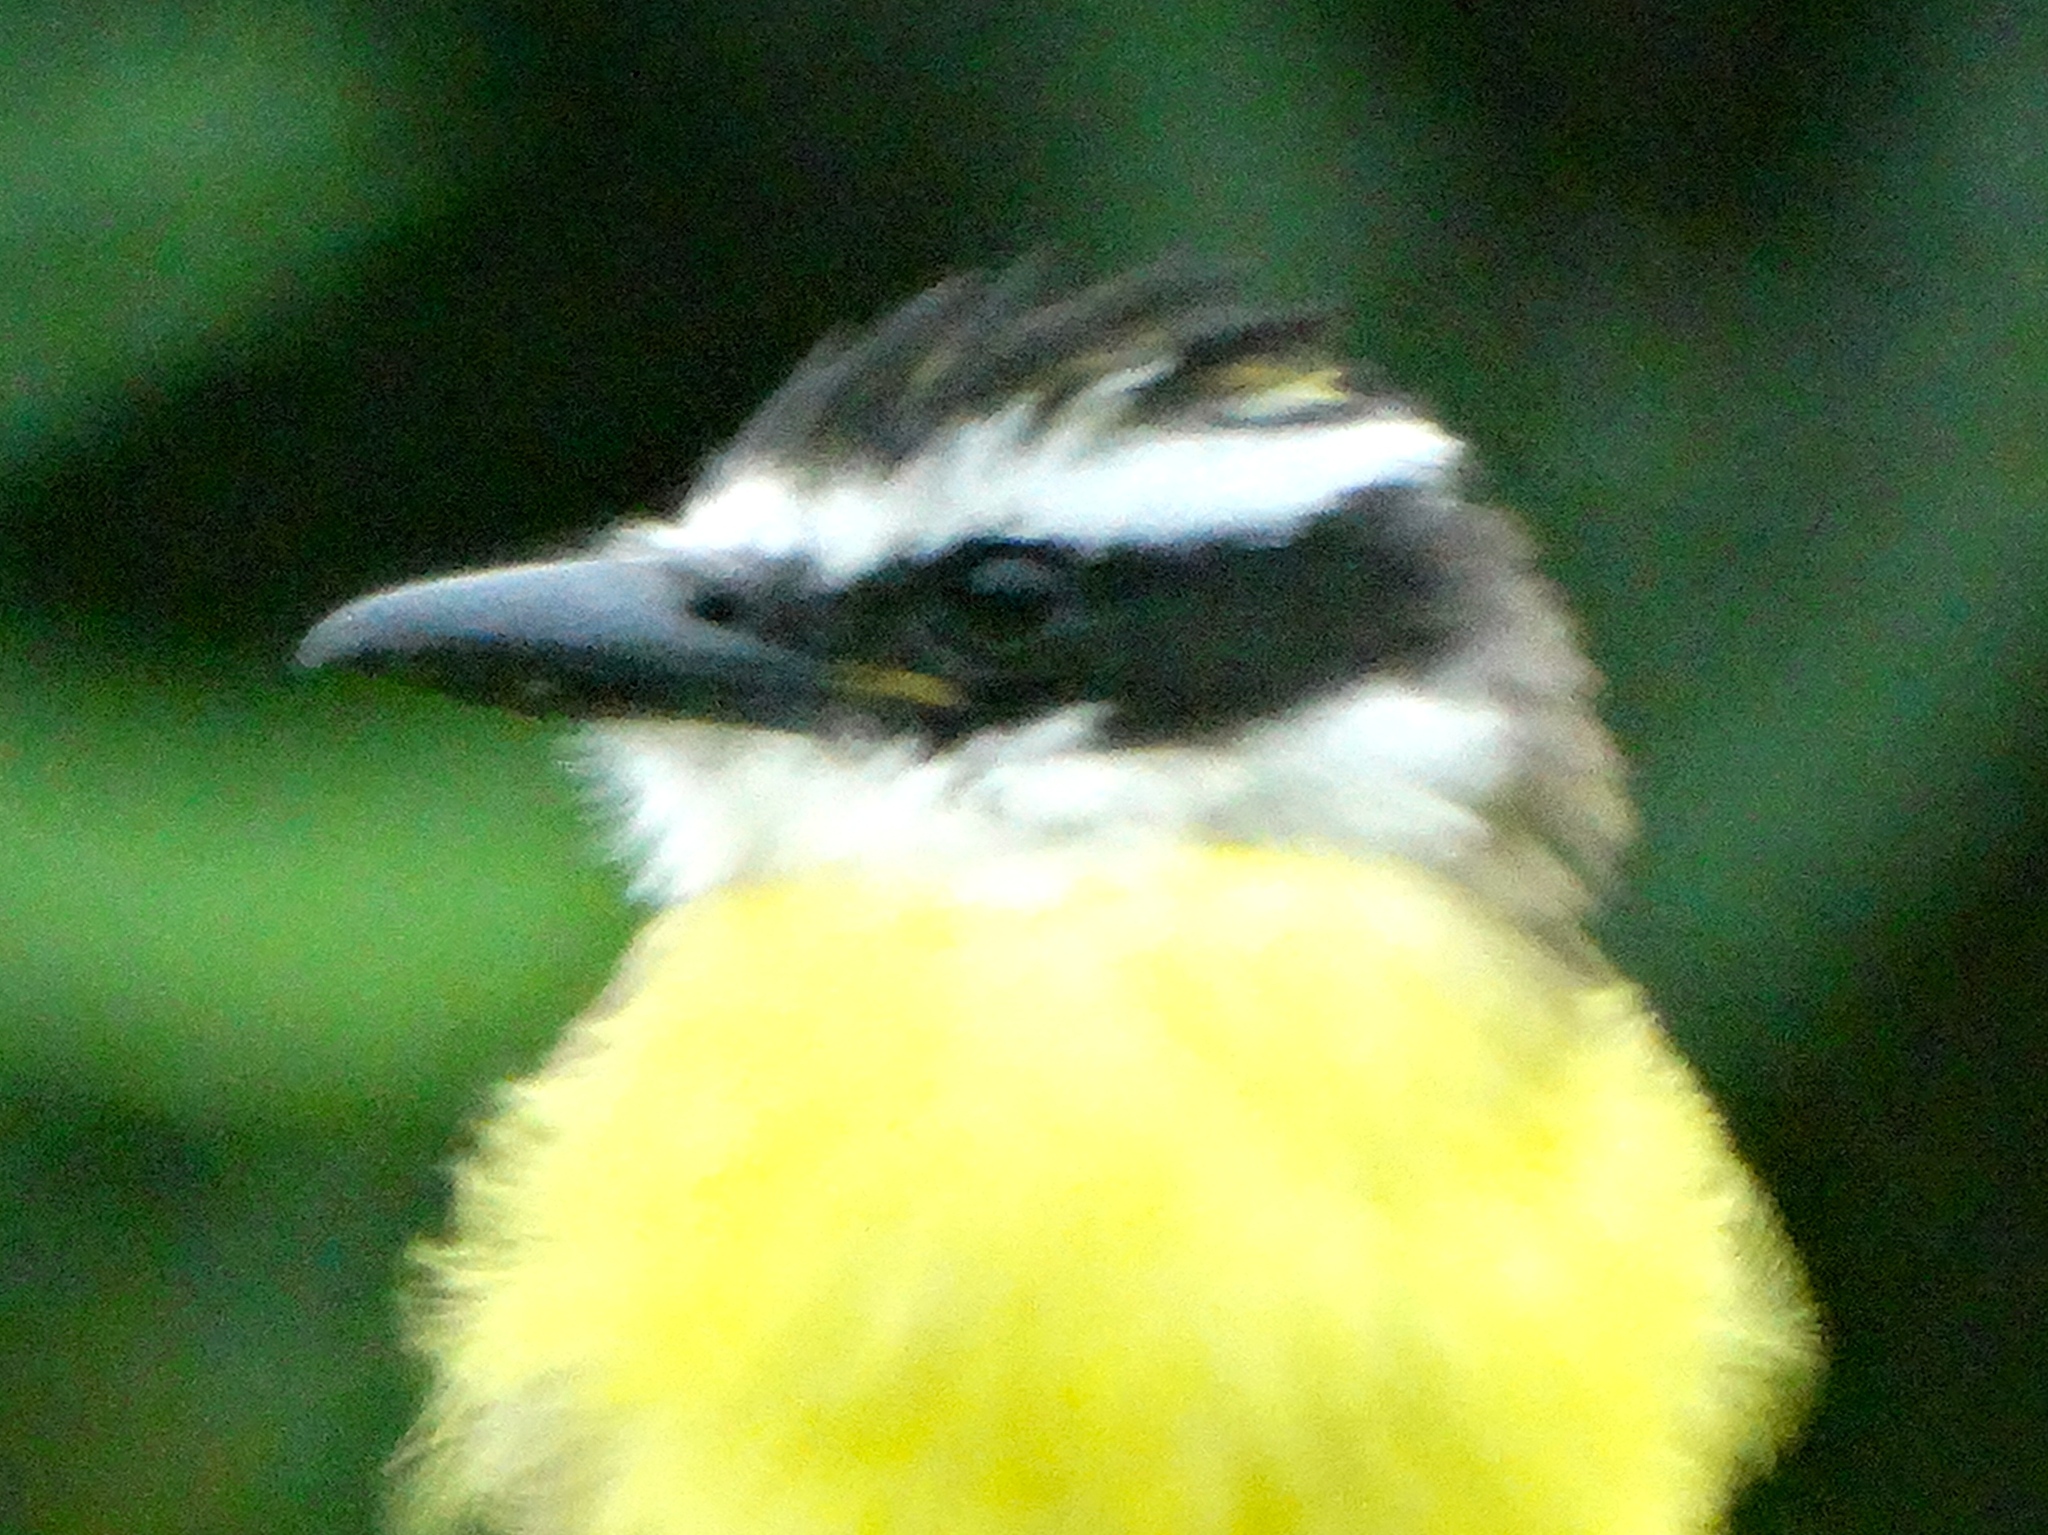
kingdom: Animalia
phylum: Chordata
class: Aves
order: Passeriformes
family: Tyrannidae
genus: Pitangus
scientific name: Pitangus sulphuratus
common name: Great kiskadee
